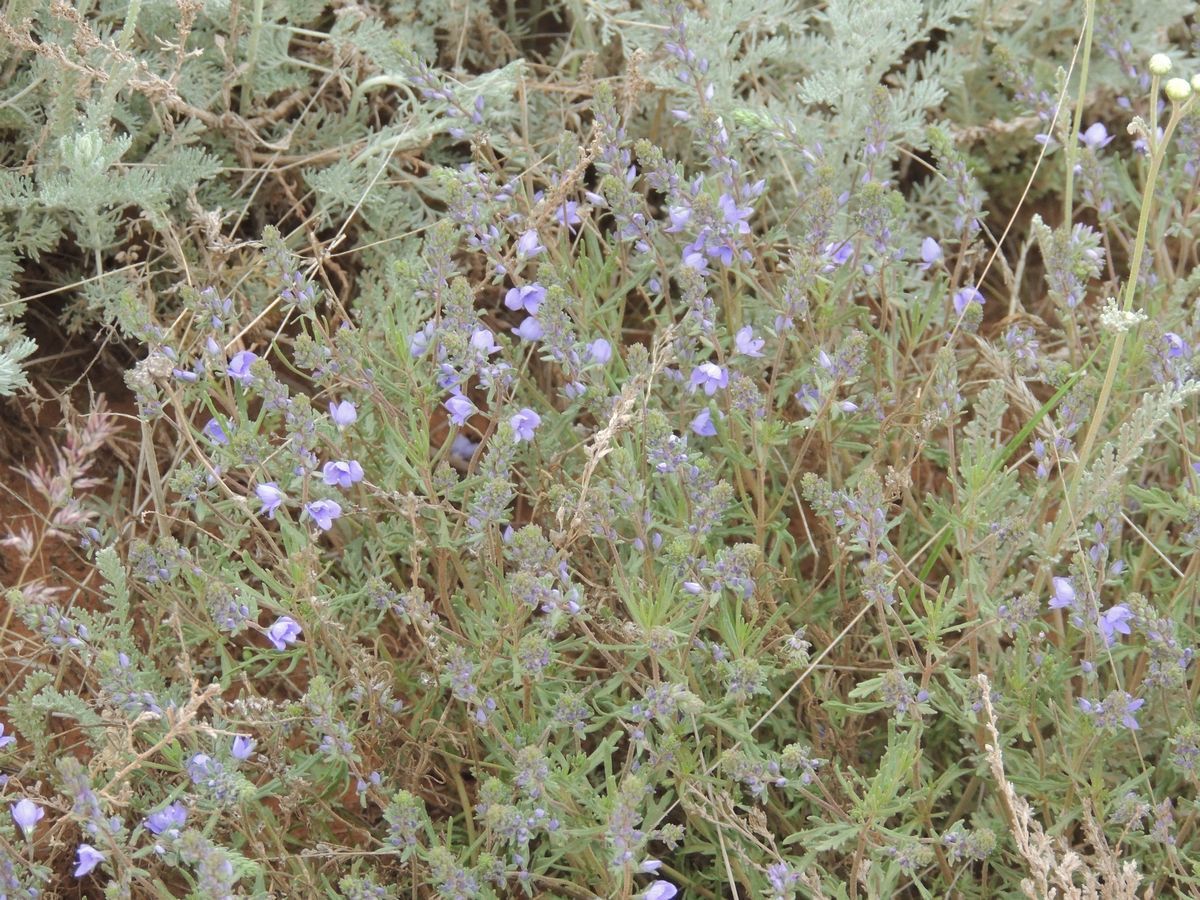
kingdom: Plantae
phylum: Tracheophyta
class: Magnoliopsida
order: Lamiales
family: Plantaginaceae
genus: Veronica
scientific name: Veronica multifida
